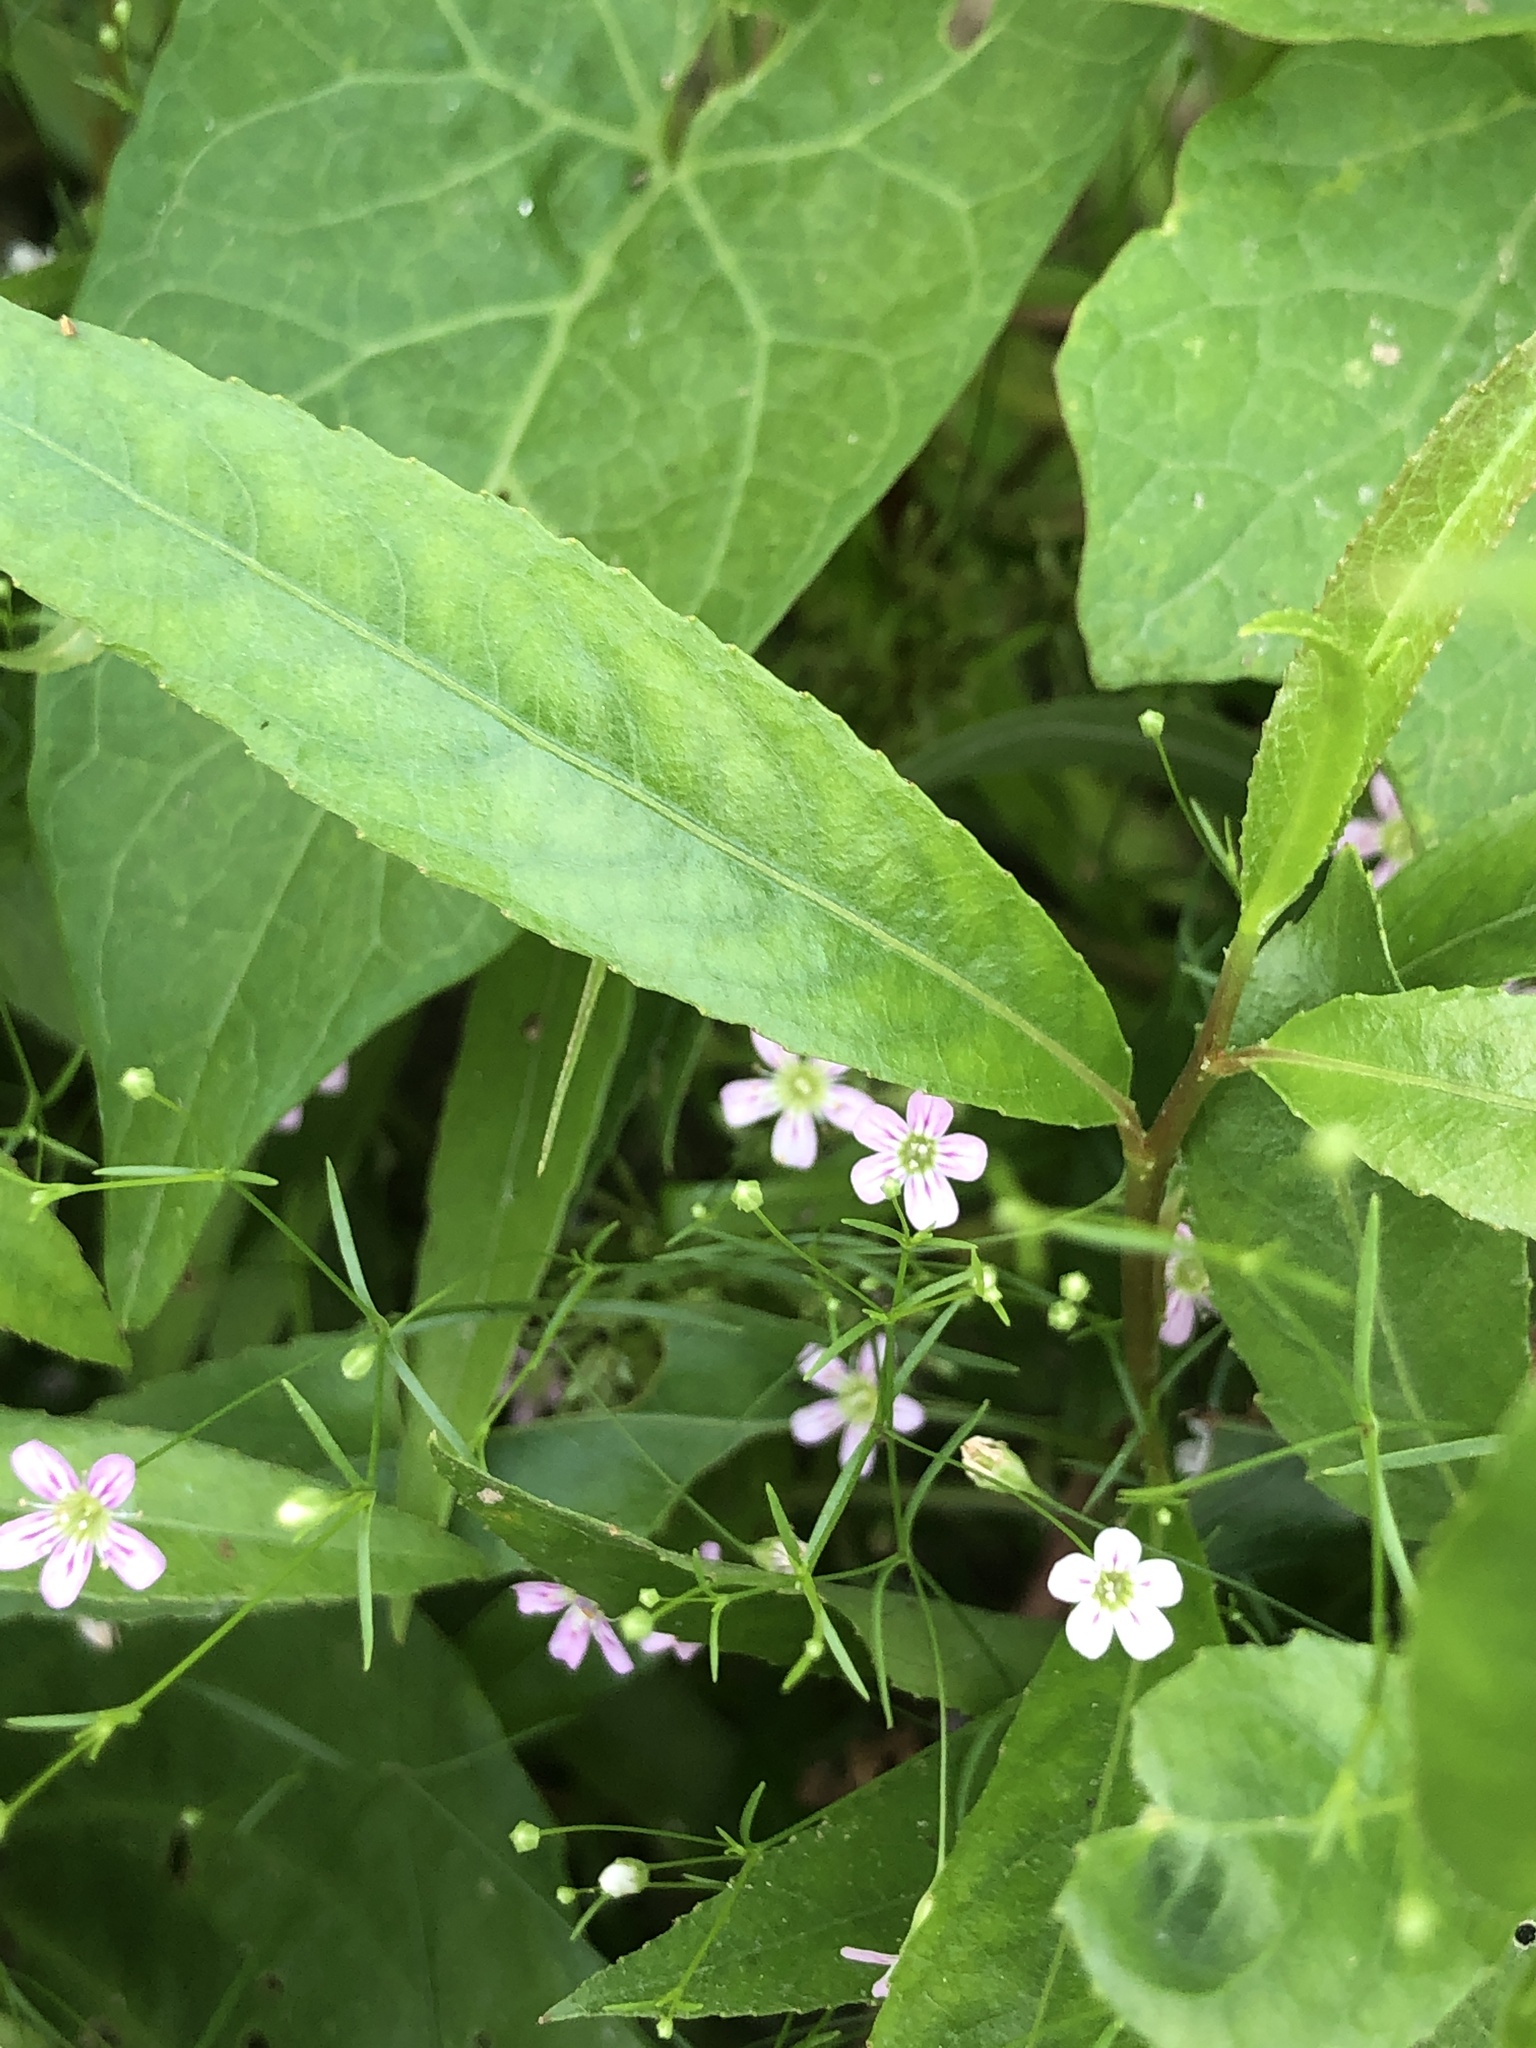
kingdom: Plantae
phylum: Tracheophyta
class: Magnoliopsida
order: Caryophyllales
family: Caryophyllaceae
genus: Psammophiliella
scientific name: Psammophiliella muralis
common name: Cushion baby's-breath
